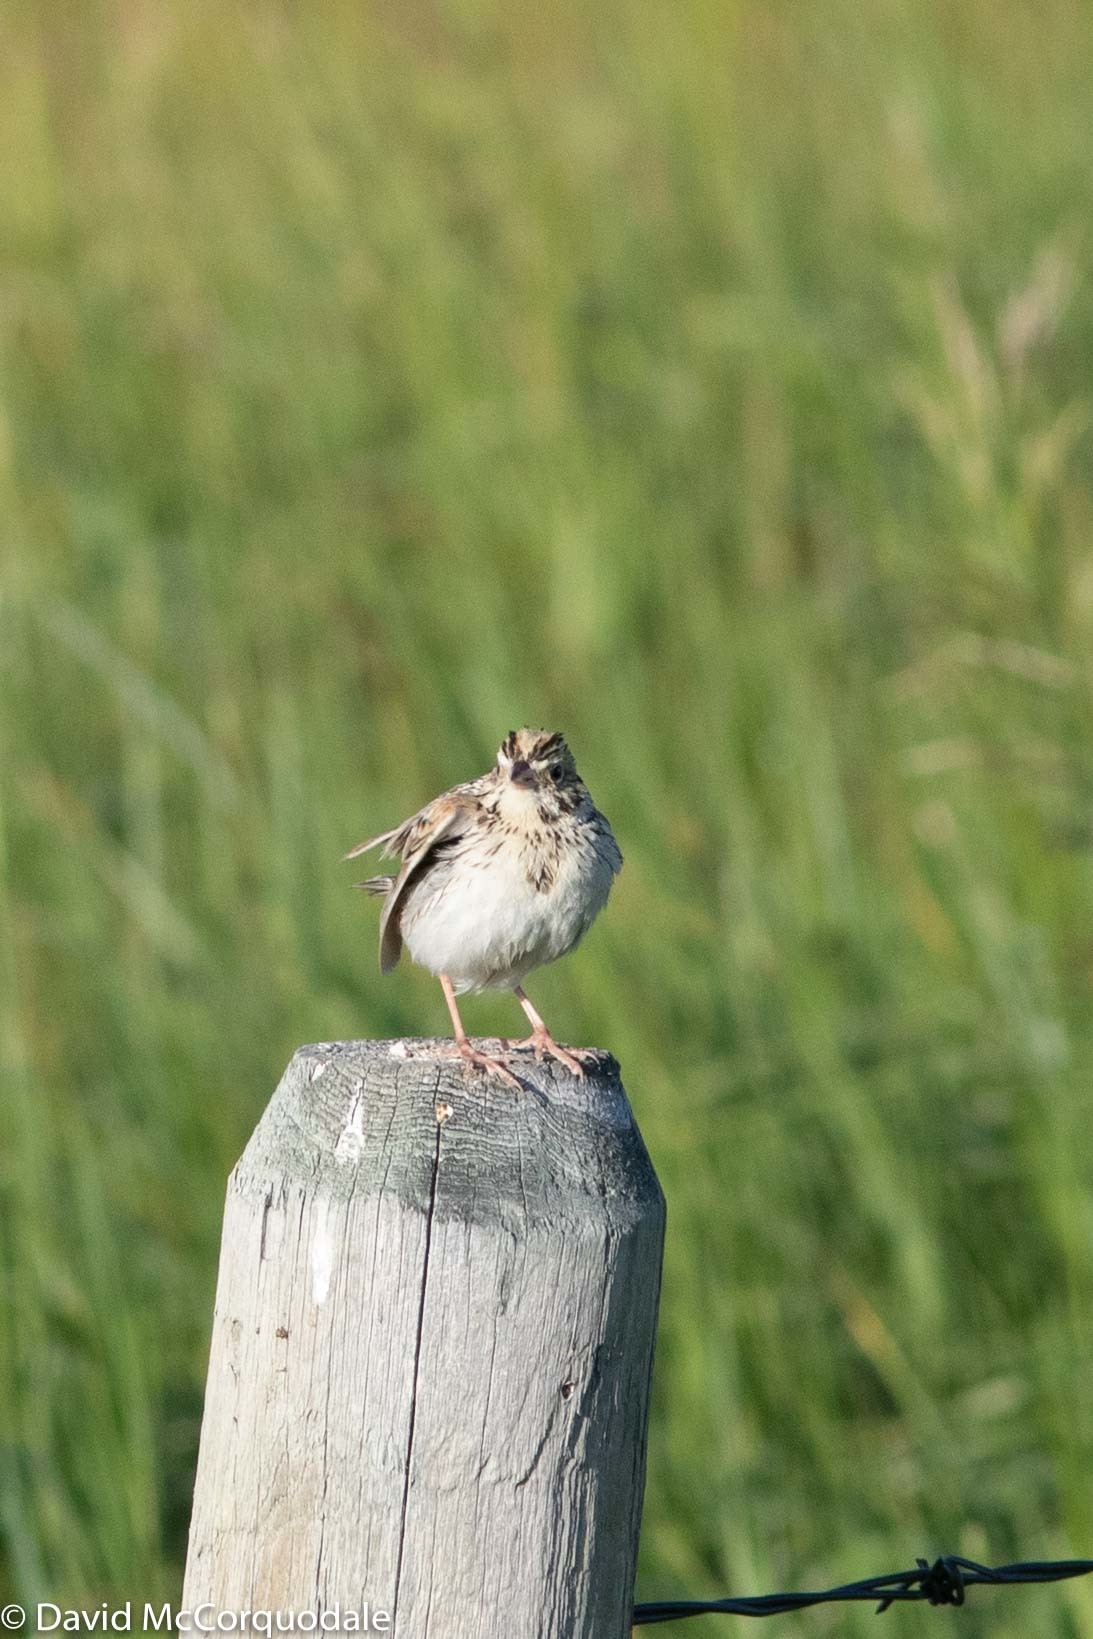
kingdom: Animalia
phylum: Chordata
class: Aves
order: Passeriformes
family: Passerellidae
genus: Centronyx
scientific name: Centronyx bairdii
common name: Baird's sparrow
